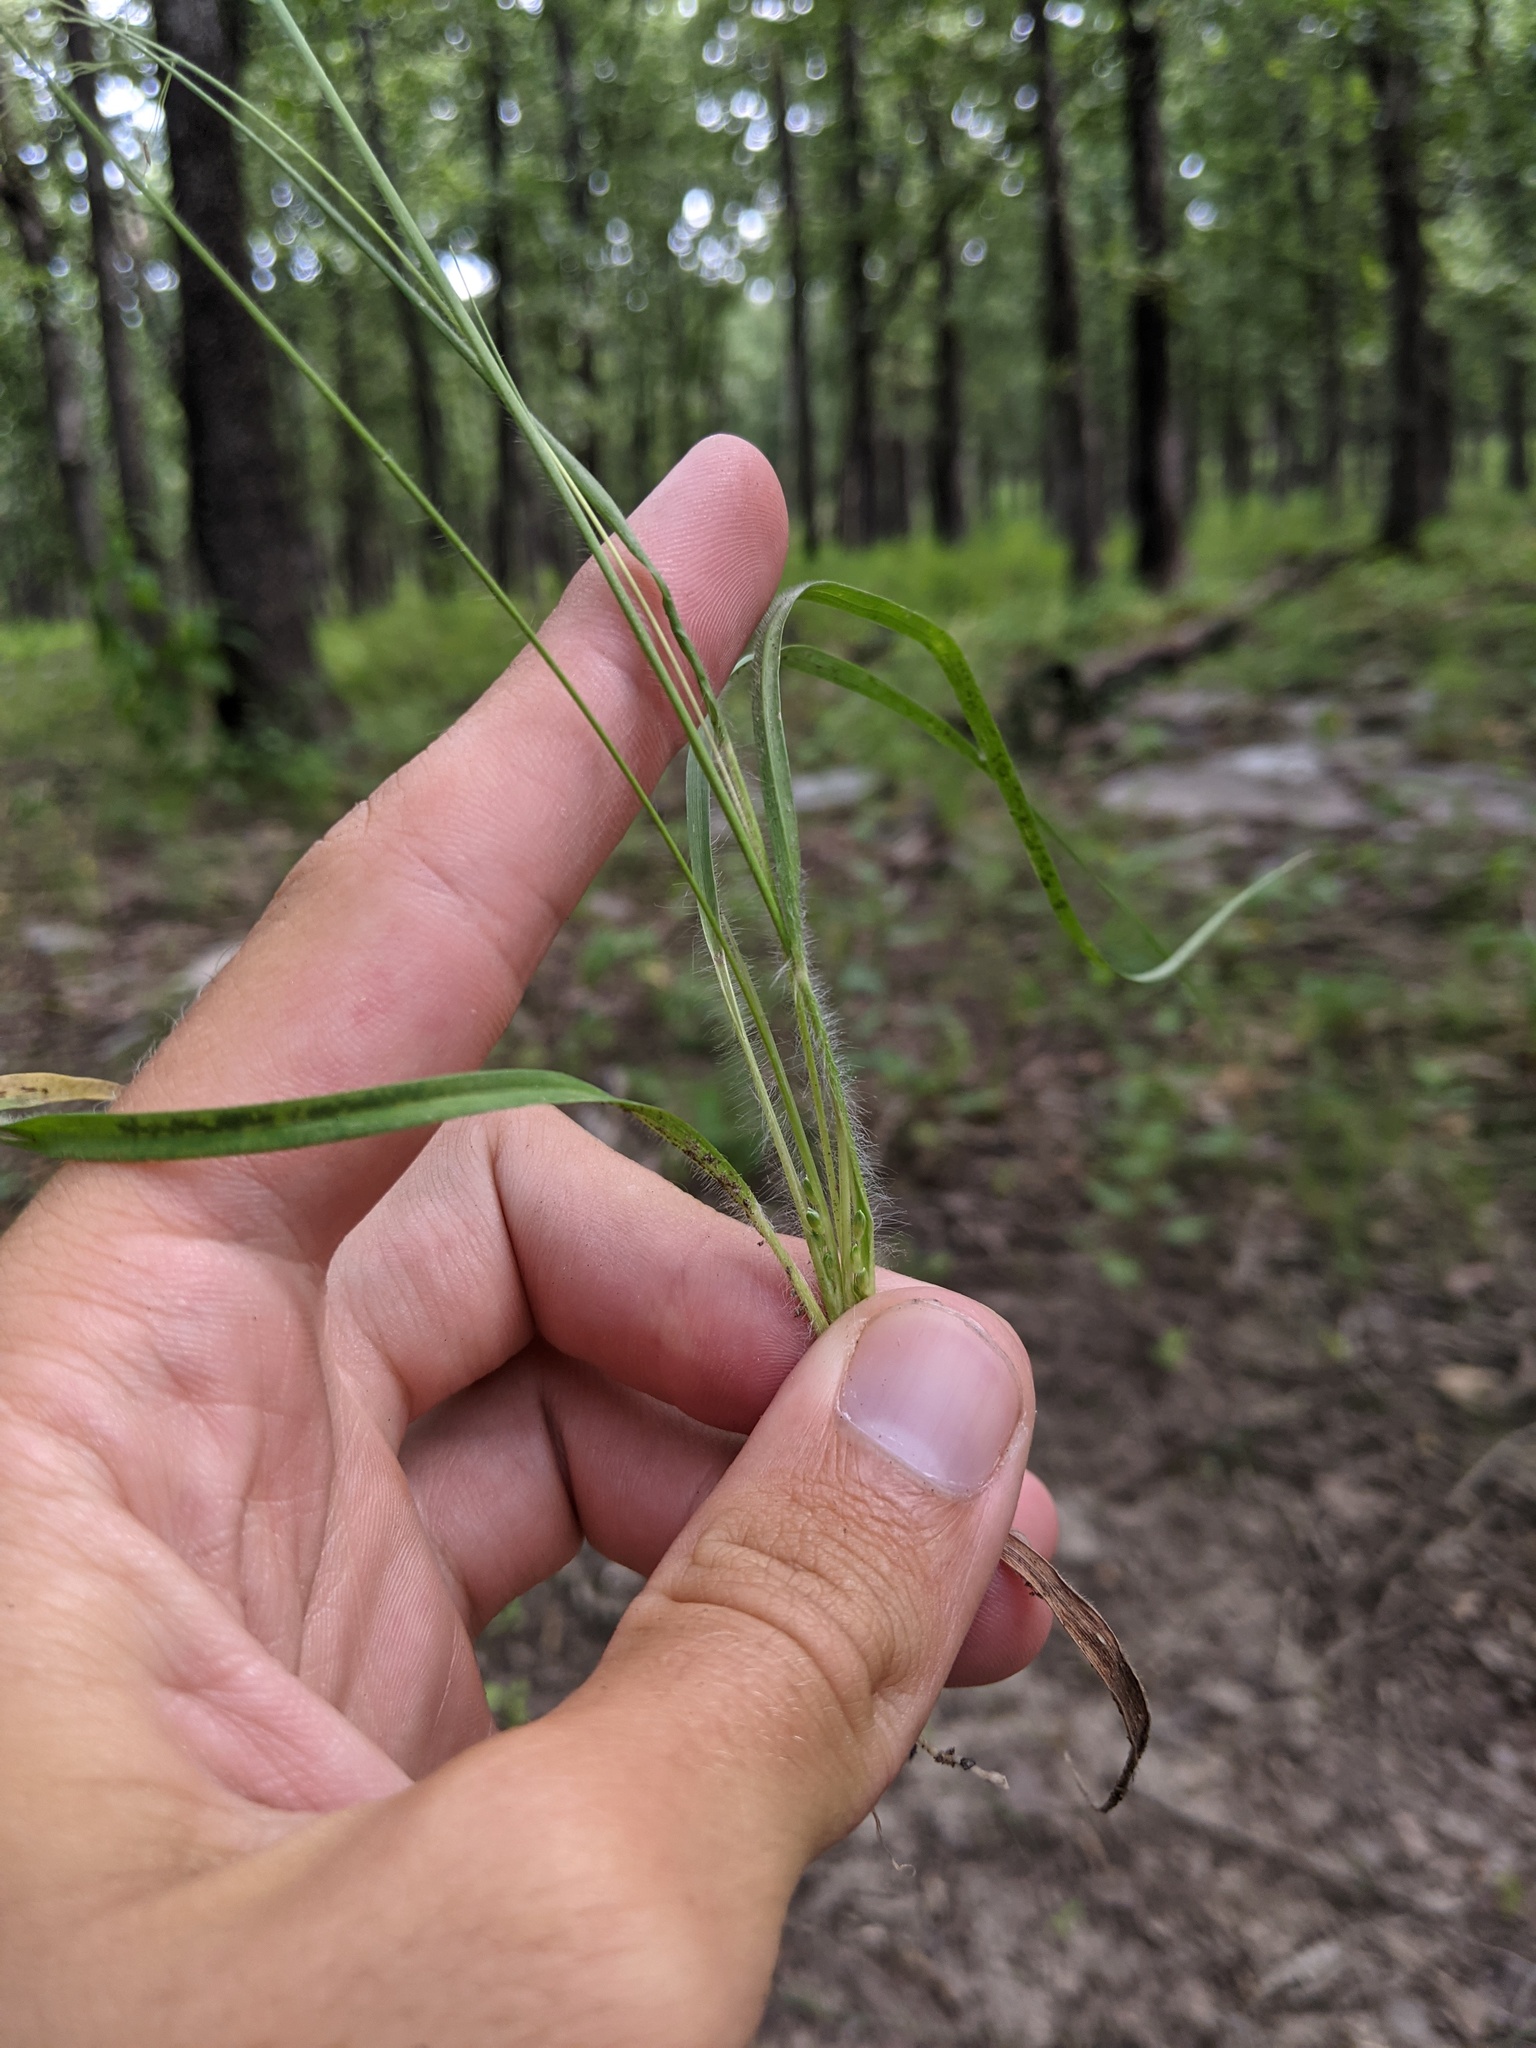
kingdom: Plantae
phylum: Tracheophyta
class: Liliopsida
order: Poales
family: Poaceae
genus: Dichanthelium
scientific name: Dichanthelium linearifolium
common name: Linear-leaved panicgrass
